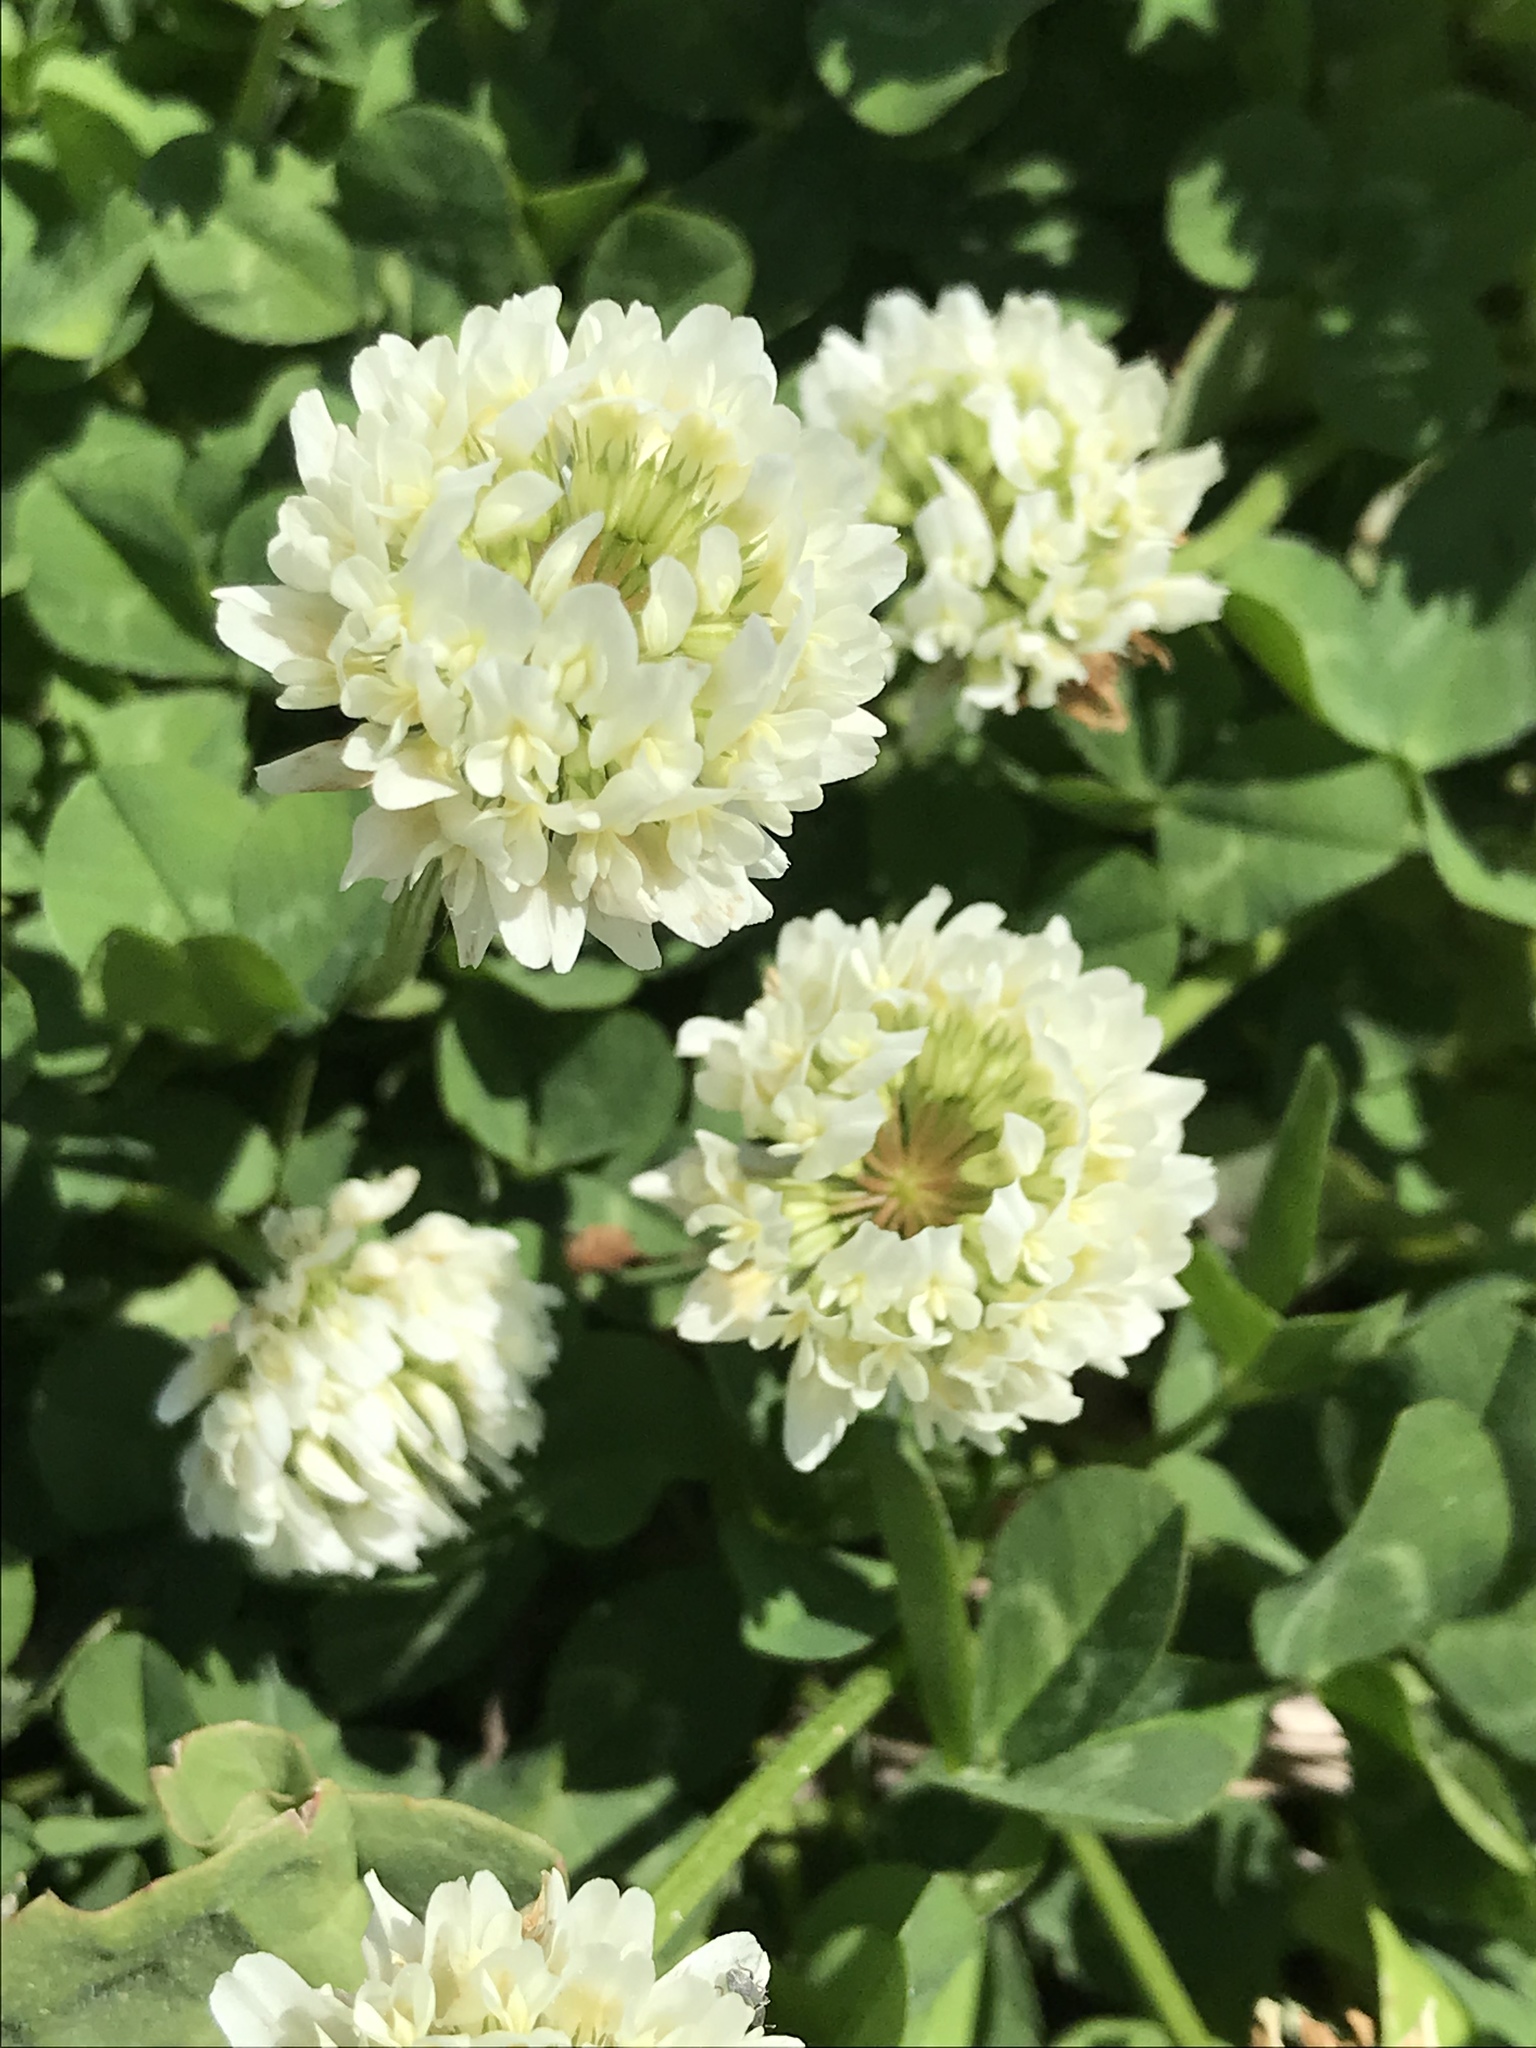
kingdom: Plantae
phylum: Tracheophyta
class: Magnoliopsida
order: Fabales
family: Fabaceae
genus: Trifolium
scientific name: Trifolium repens
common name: White clover
